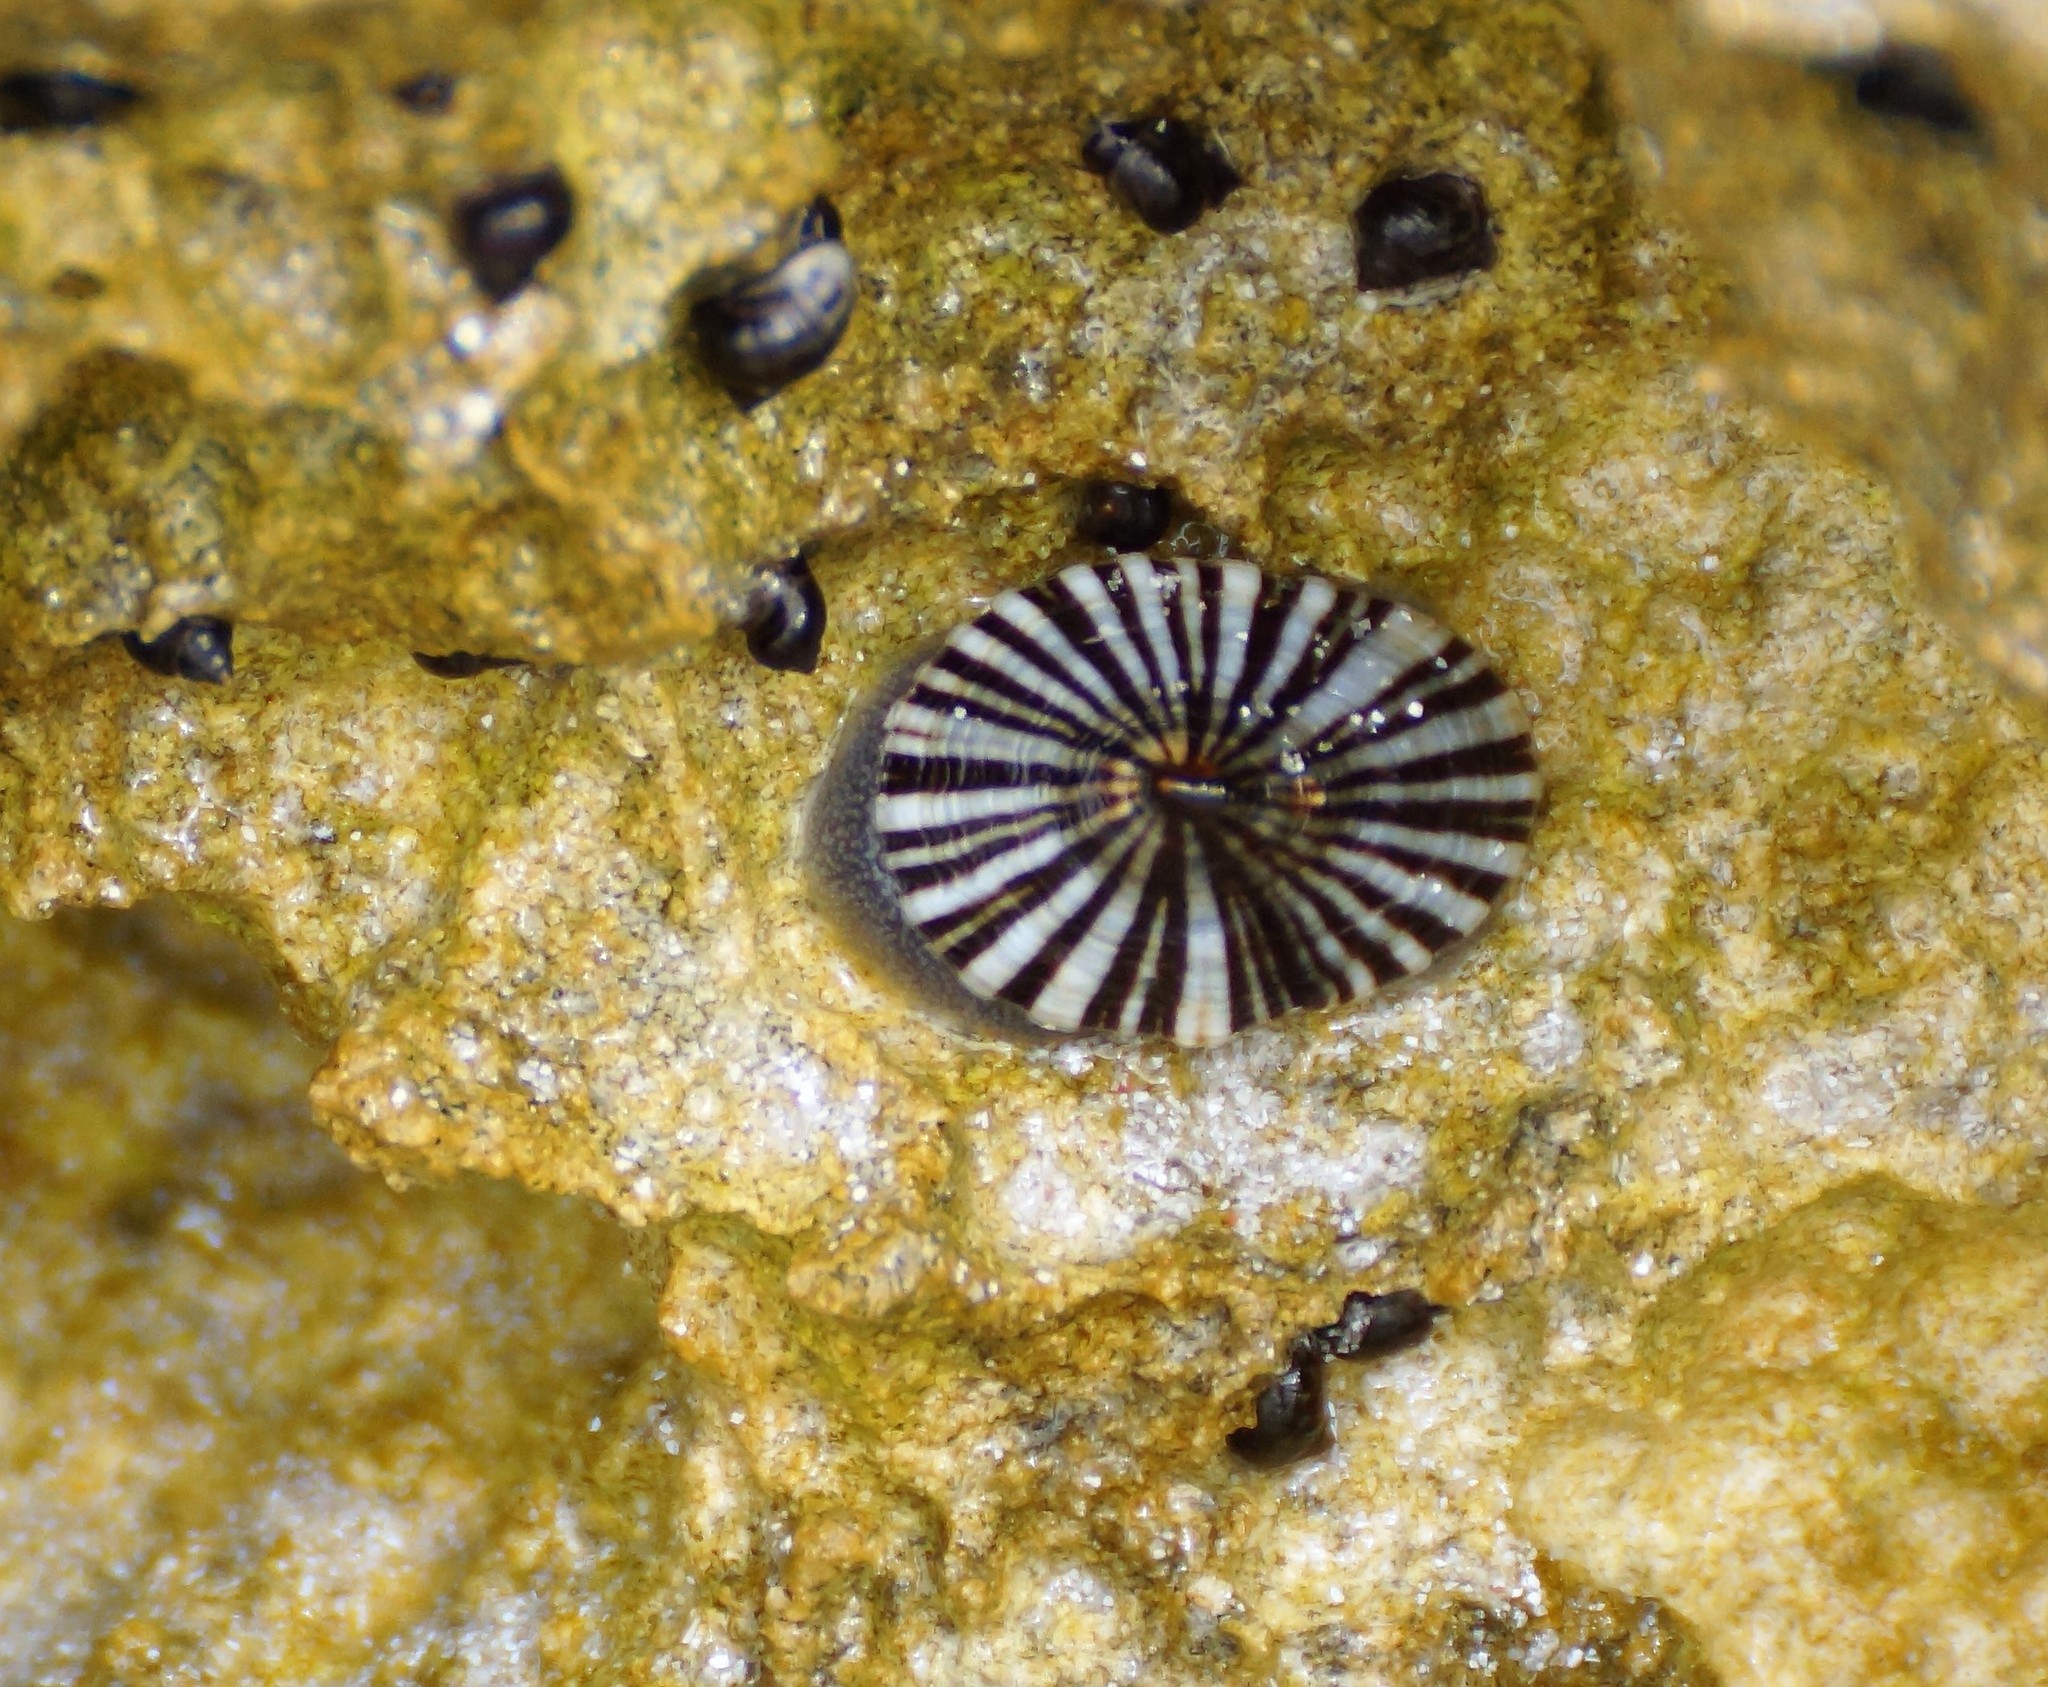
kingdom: Animalia
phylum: Mollusca
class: Gastropoda
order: Siphonariida
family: Siphonariidae
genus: Siphonaria
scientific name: Siphonaria funiculata
